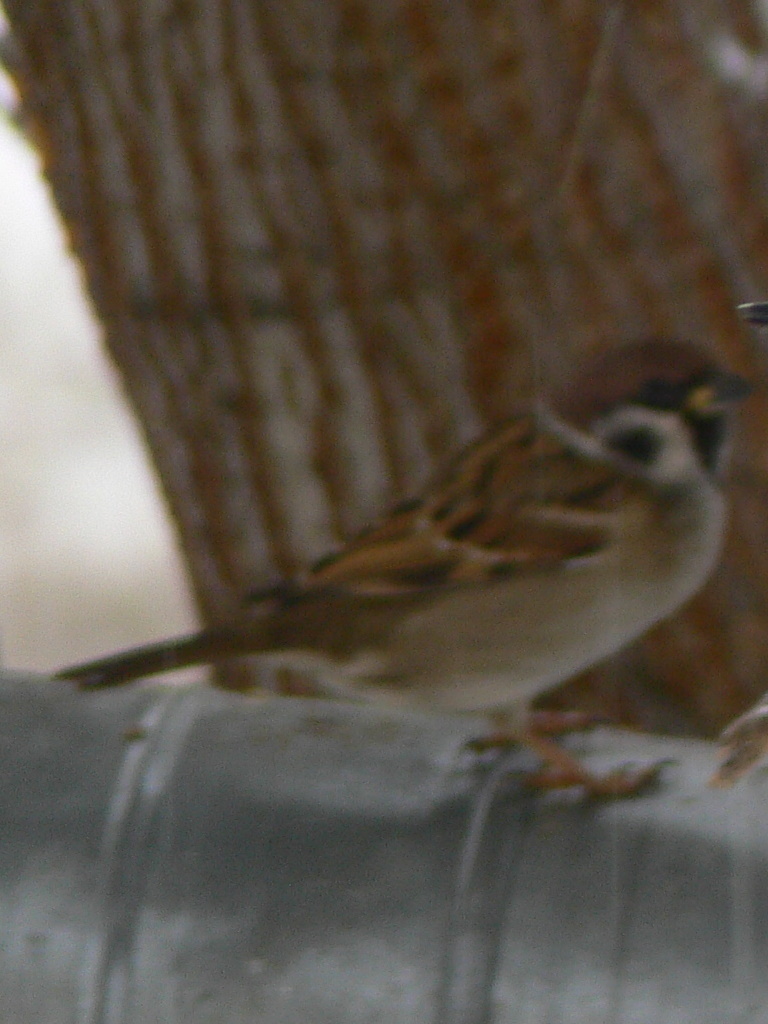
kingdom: Animalia
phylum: Chordata
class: Aves
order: Passeriformes
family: Passeridae
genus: Passer
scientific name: Passer montanus
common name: Eurasian tree sparrow
